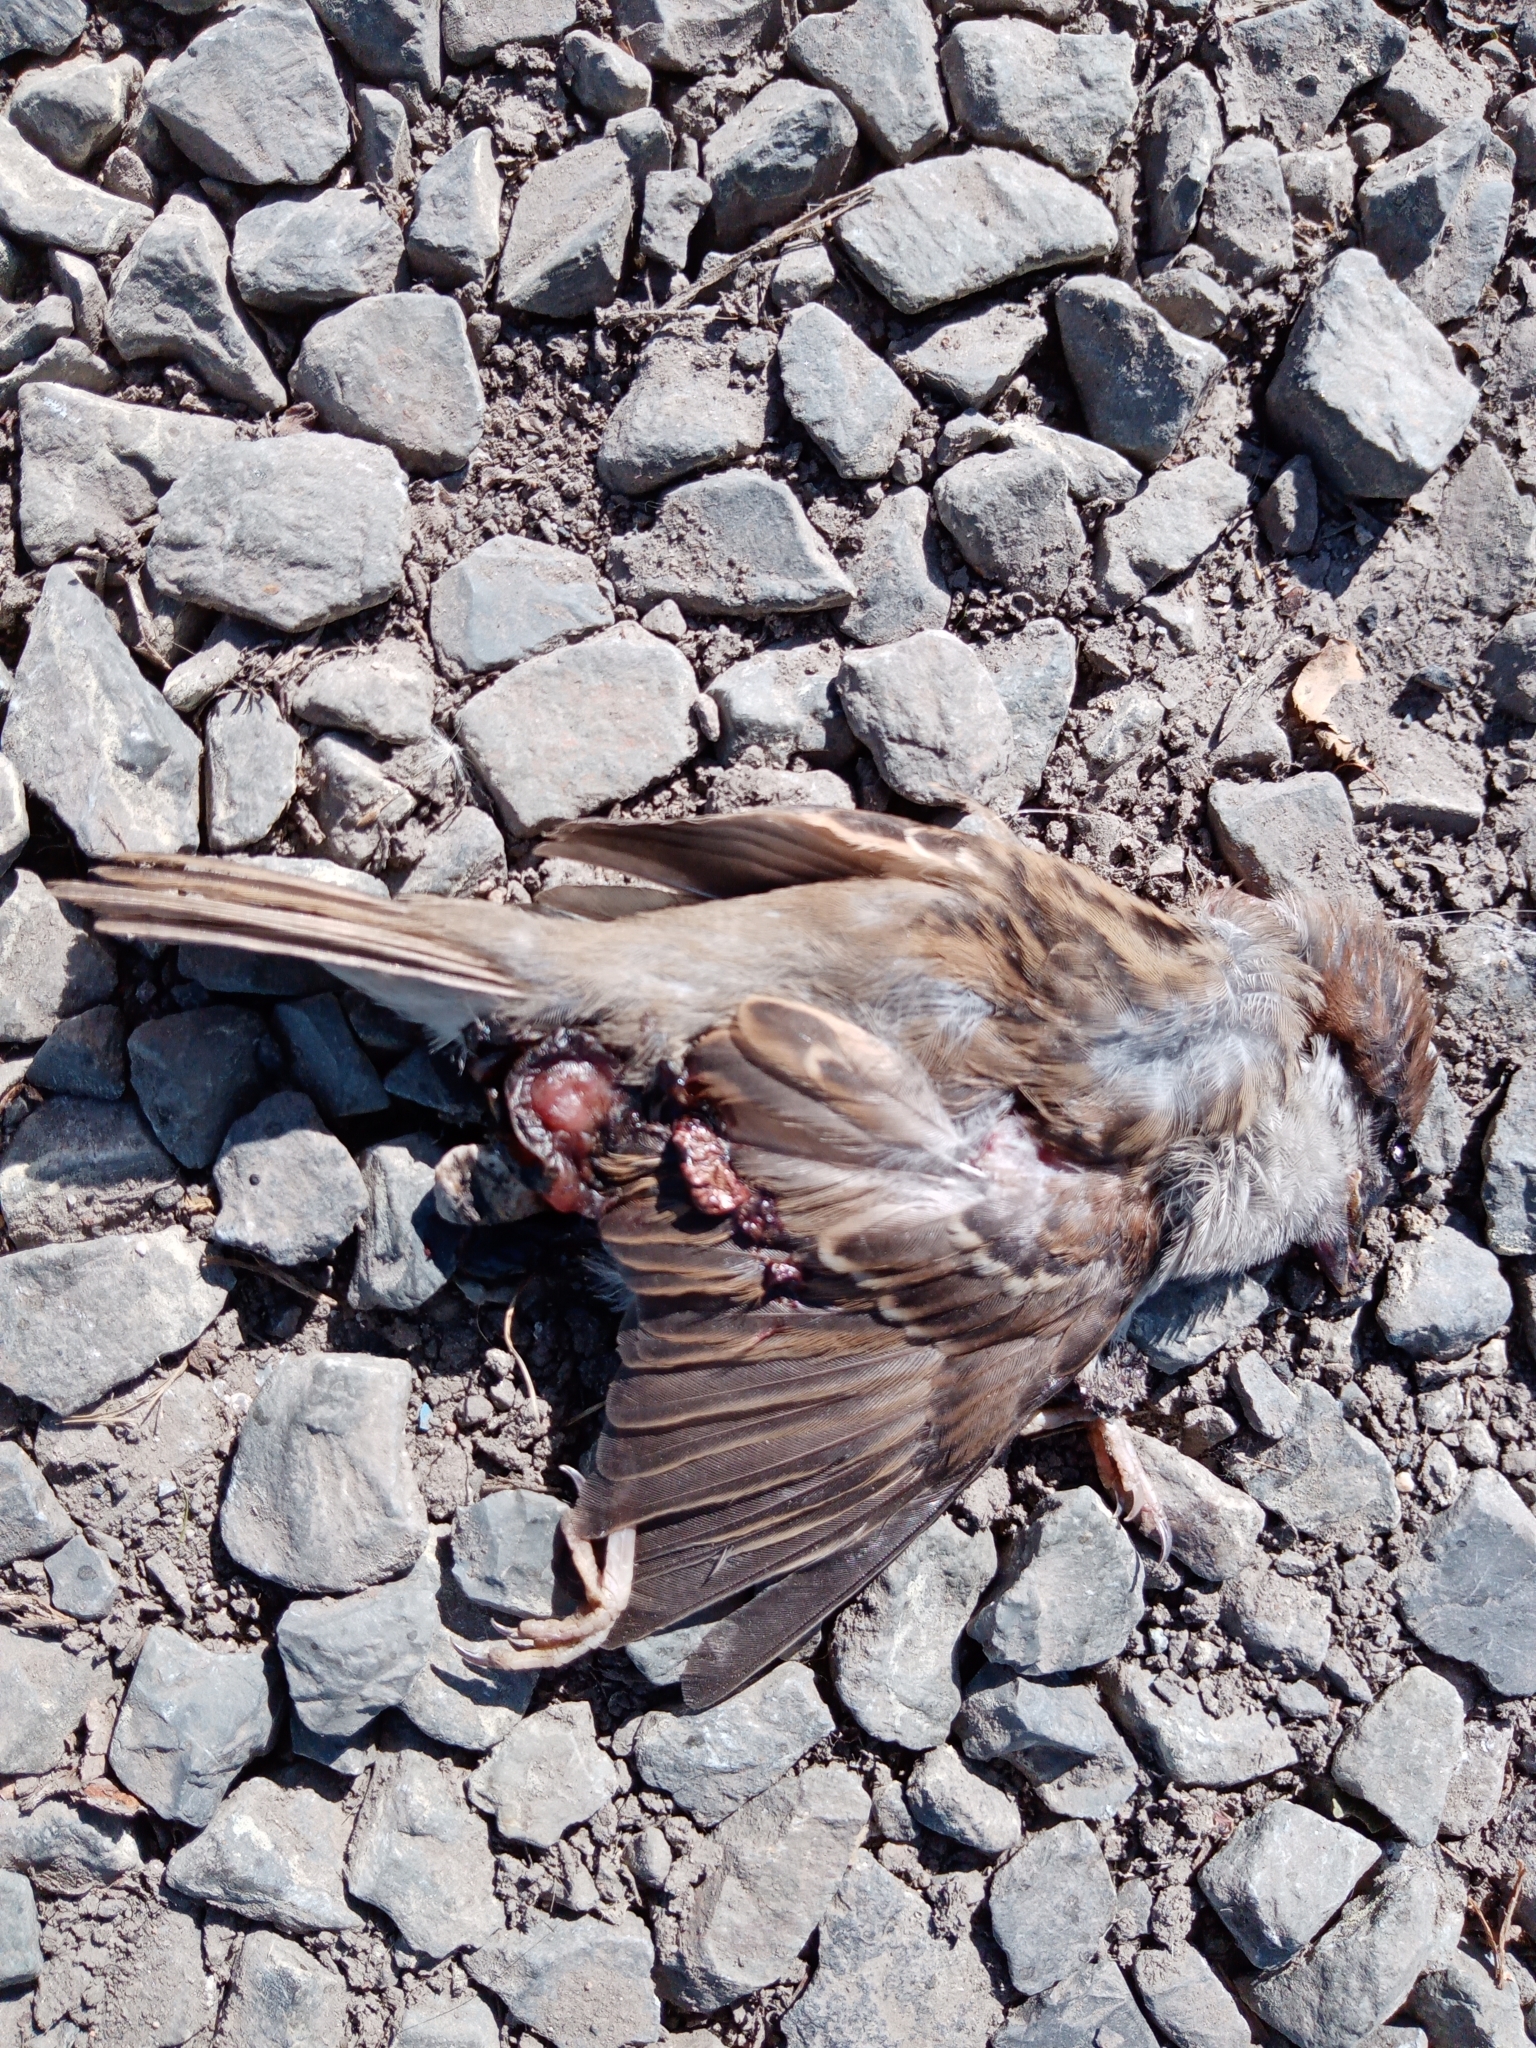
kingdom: Animalia
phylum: Chordata
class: Aves
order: Passeriformes
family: Passeridae
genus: Passer
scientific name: Passer domesticus
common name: House sparrow
